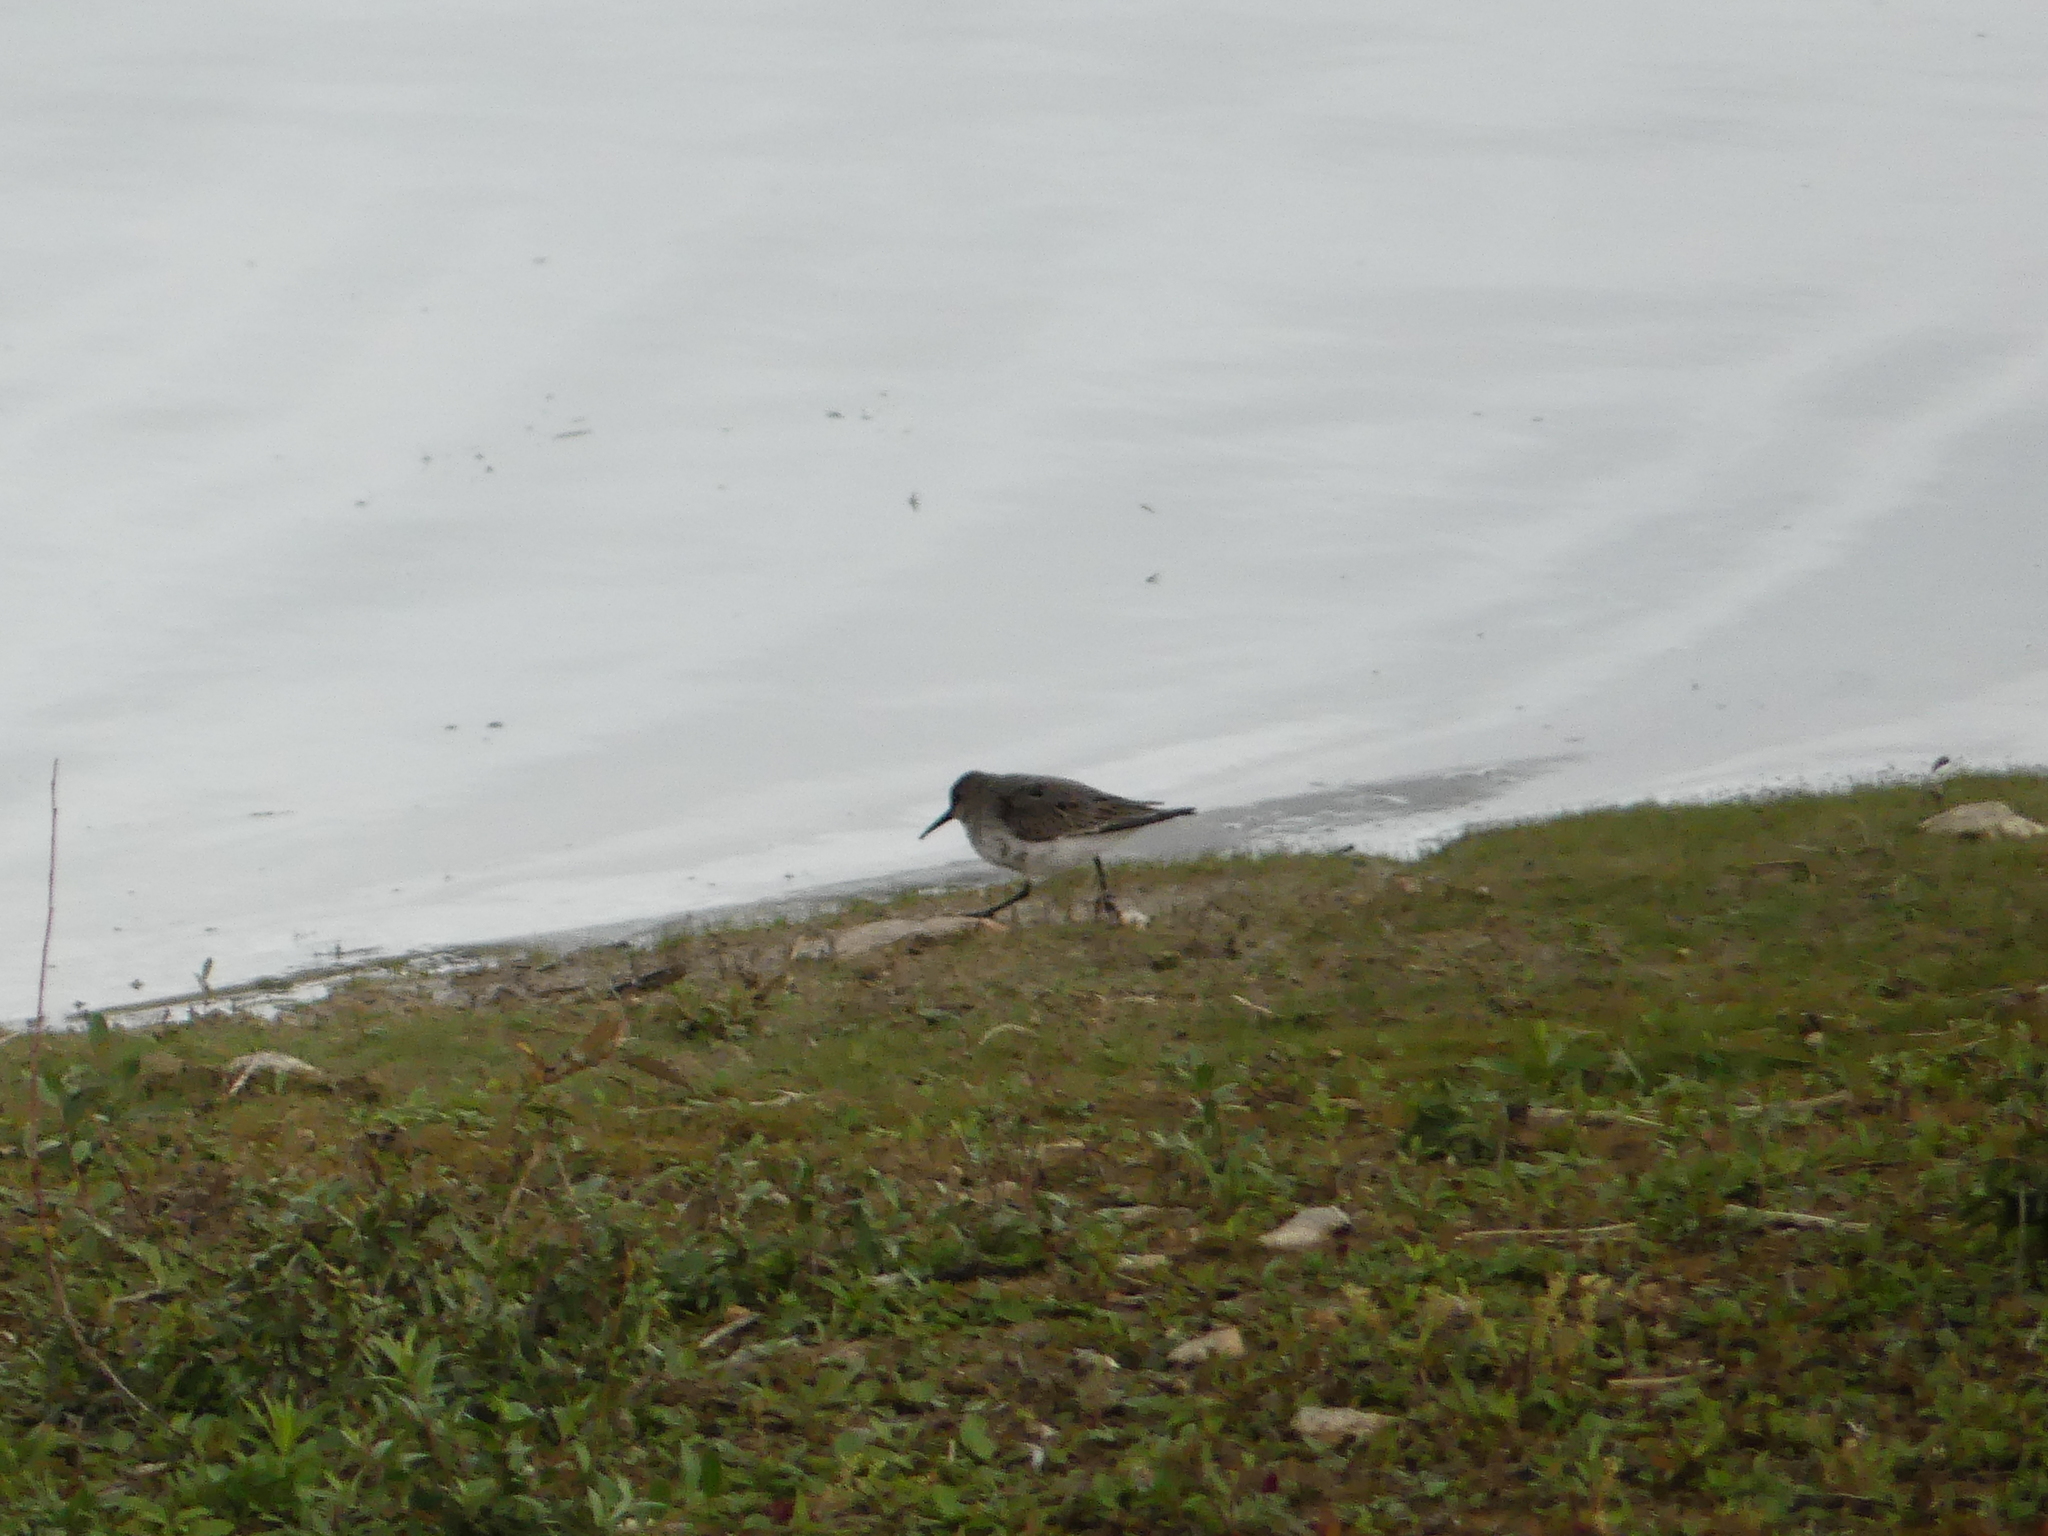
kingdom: Animalia
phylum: Chordata
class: Aves
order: Charadriiformes
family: Scolopacidae
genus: Calidris
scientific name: Calidris alpina
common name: Dunlin
